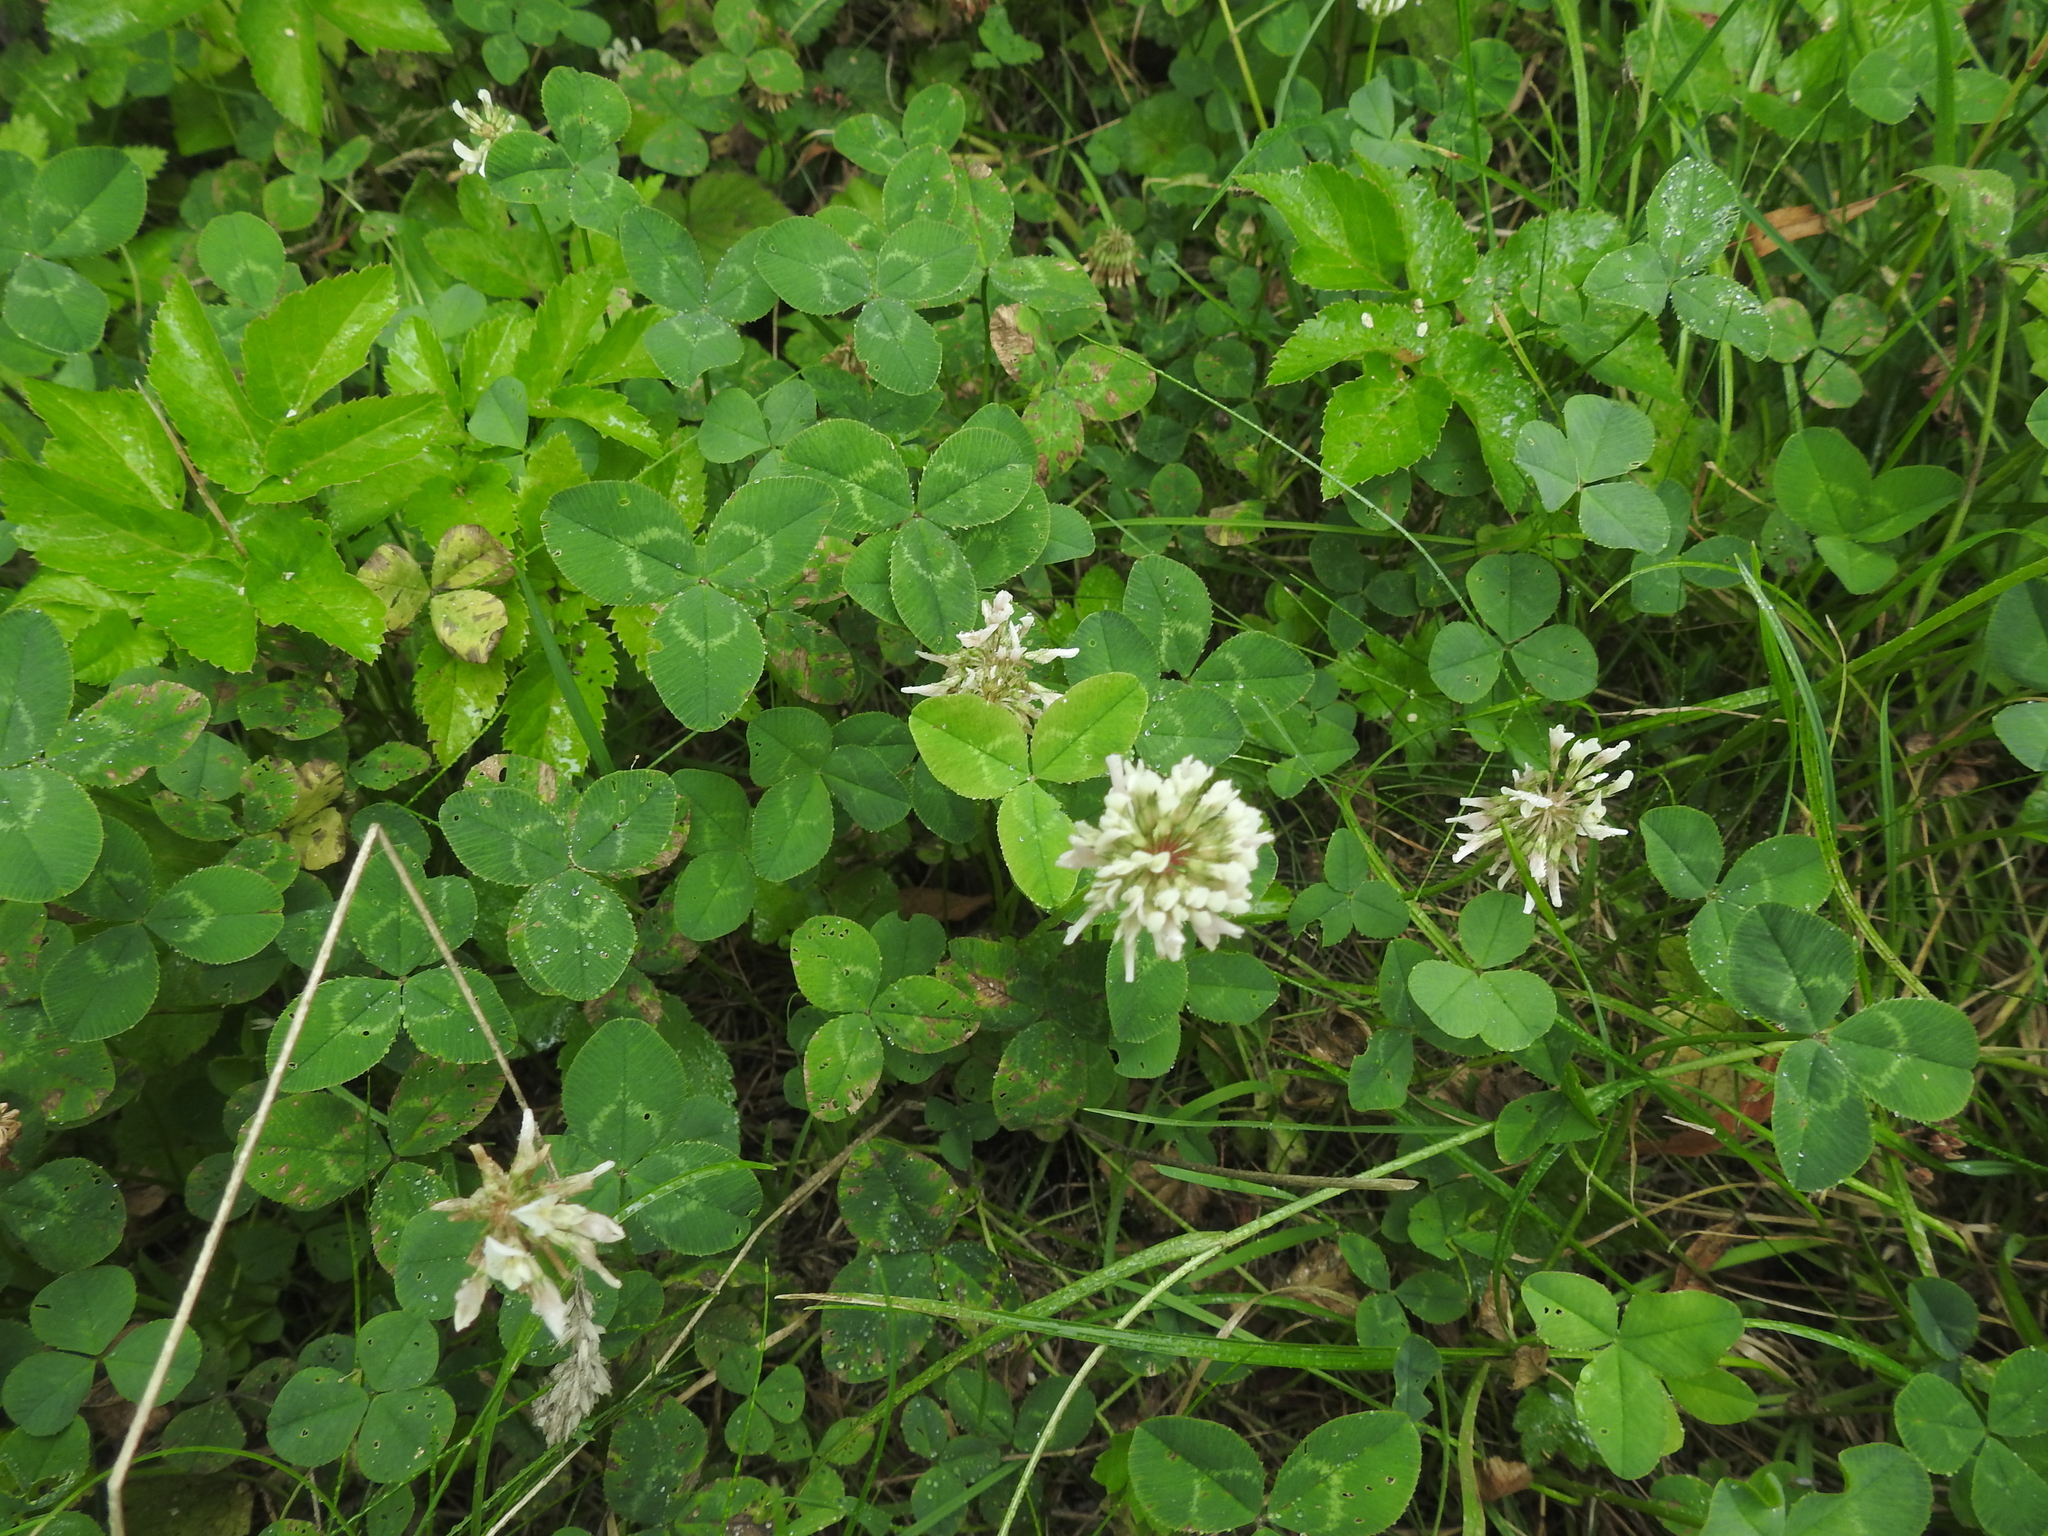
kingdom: Plantae
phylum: Tracheophyta
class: Magnoliopsida
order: Fabales
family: Fabaceae
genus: Trifolium
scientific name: Trifolium repens
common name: White clover
